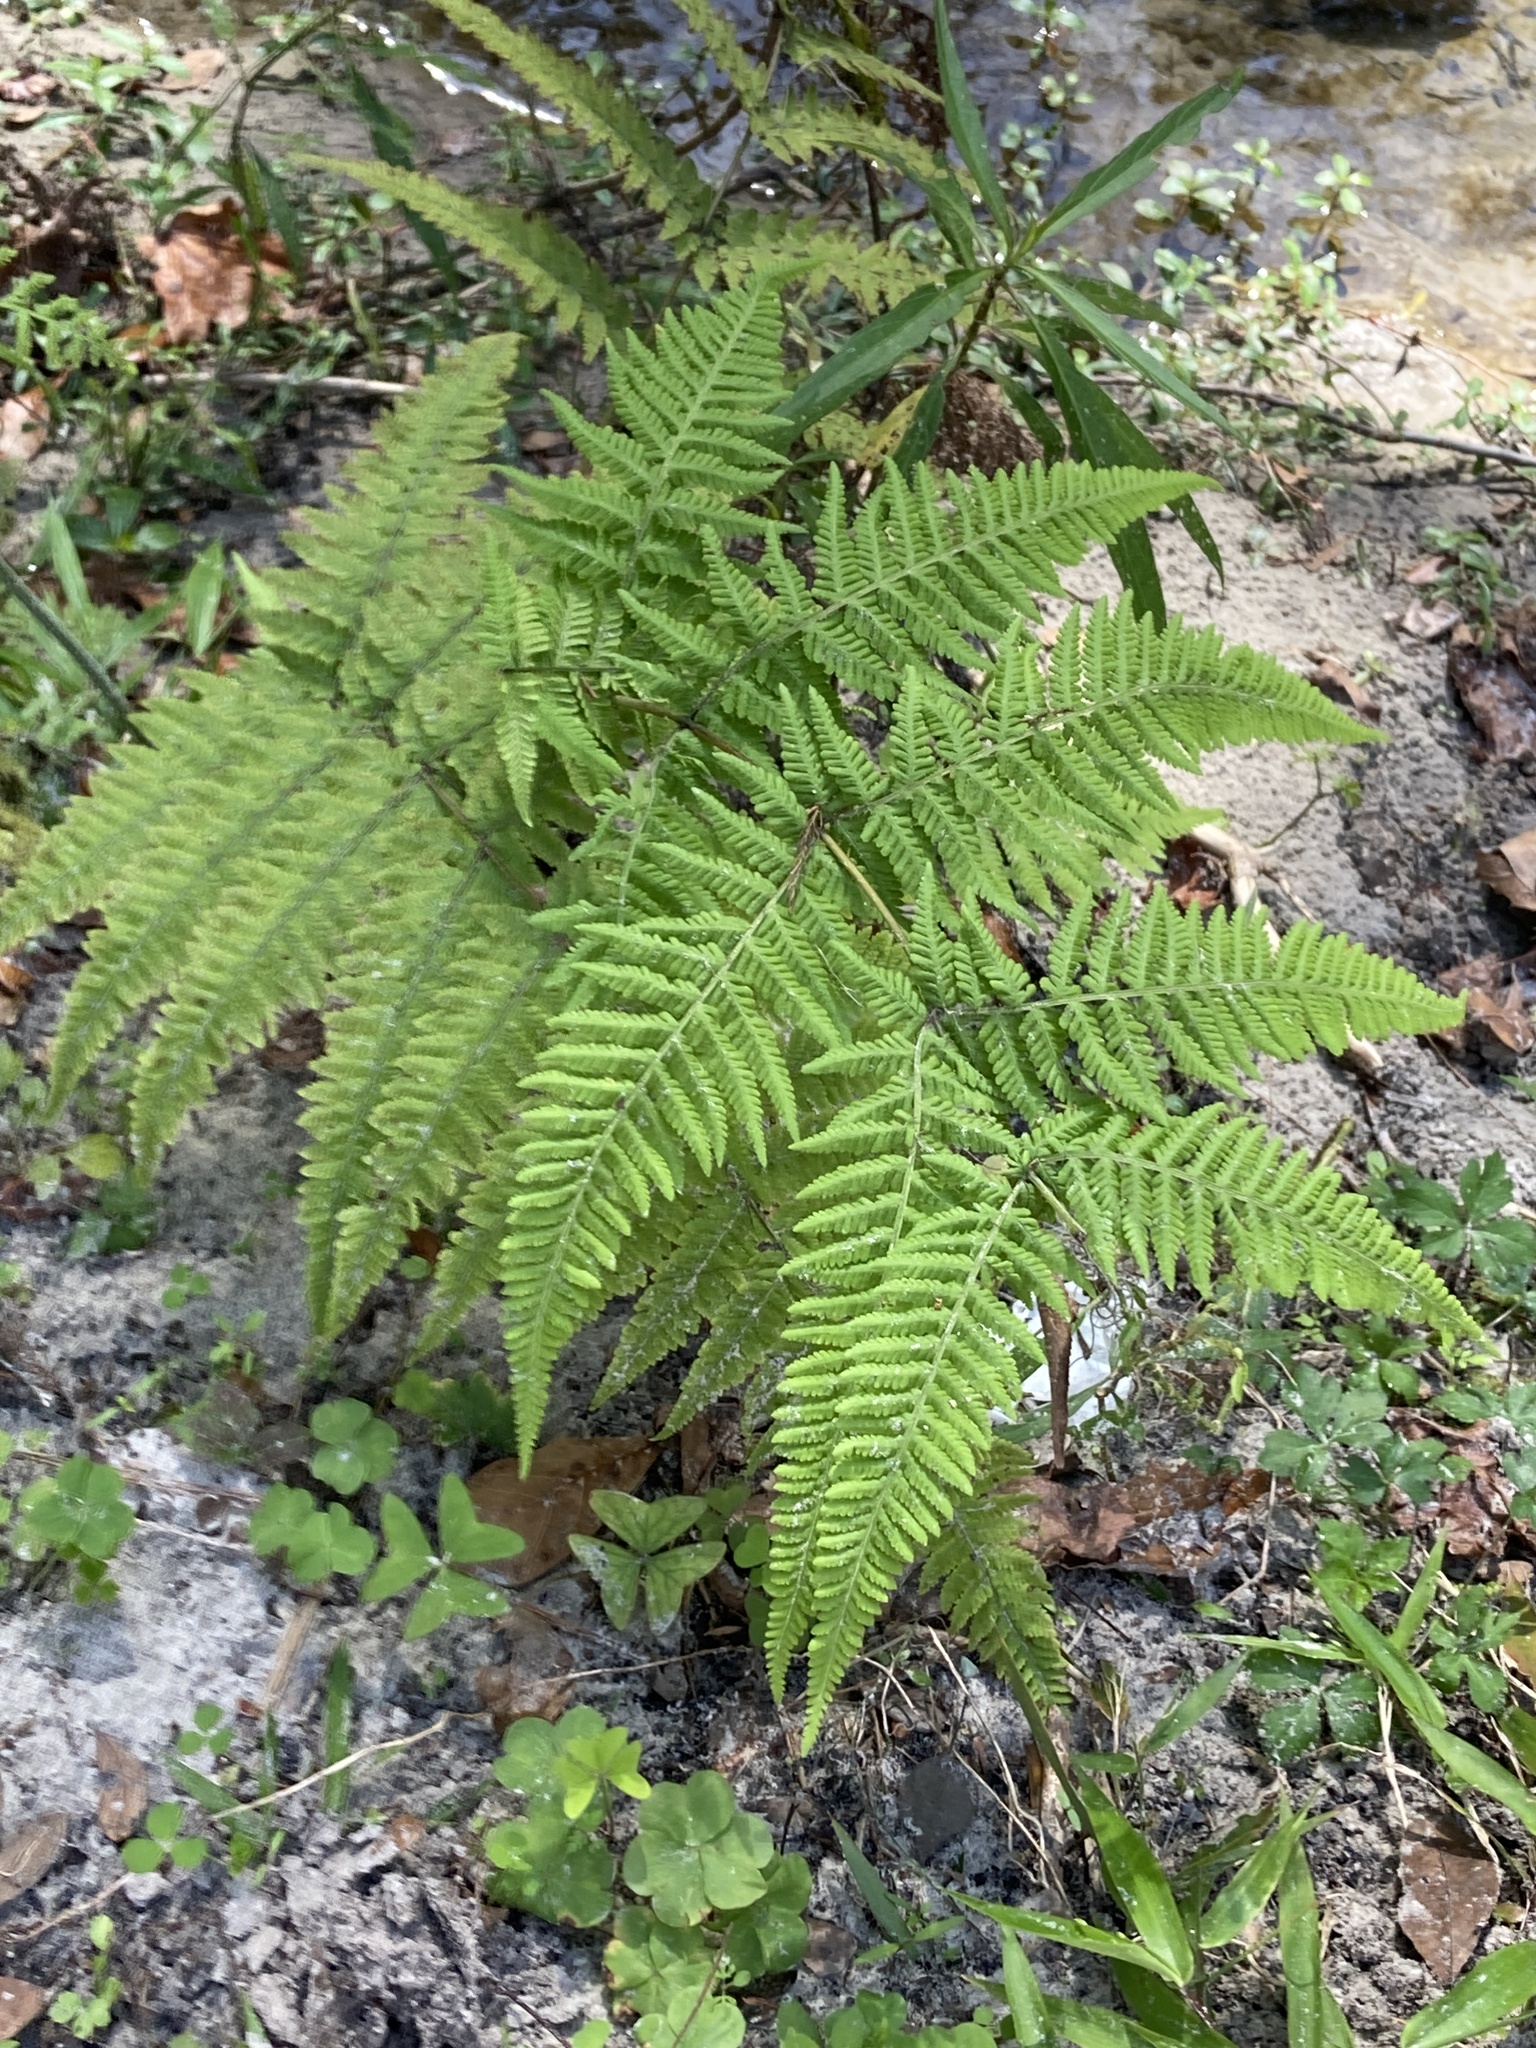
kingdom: Plantae
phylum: Tracheophyta
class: Polypodiopsida
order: Polypodiales
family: Thelypteridaceae
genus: Macrothelypteris
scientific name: Macrothelypteris torresiana
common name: Swordfern
